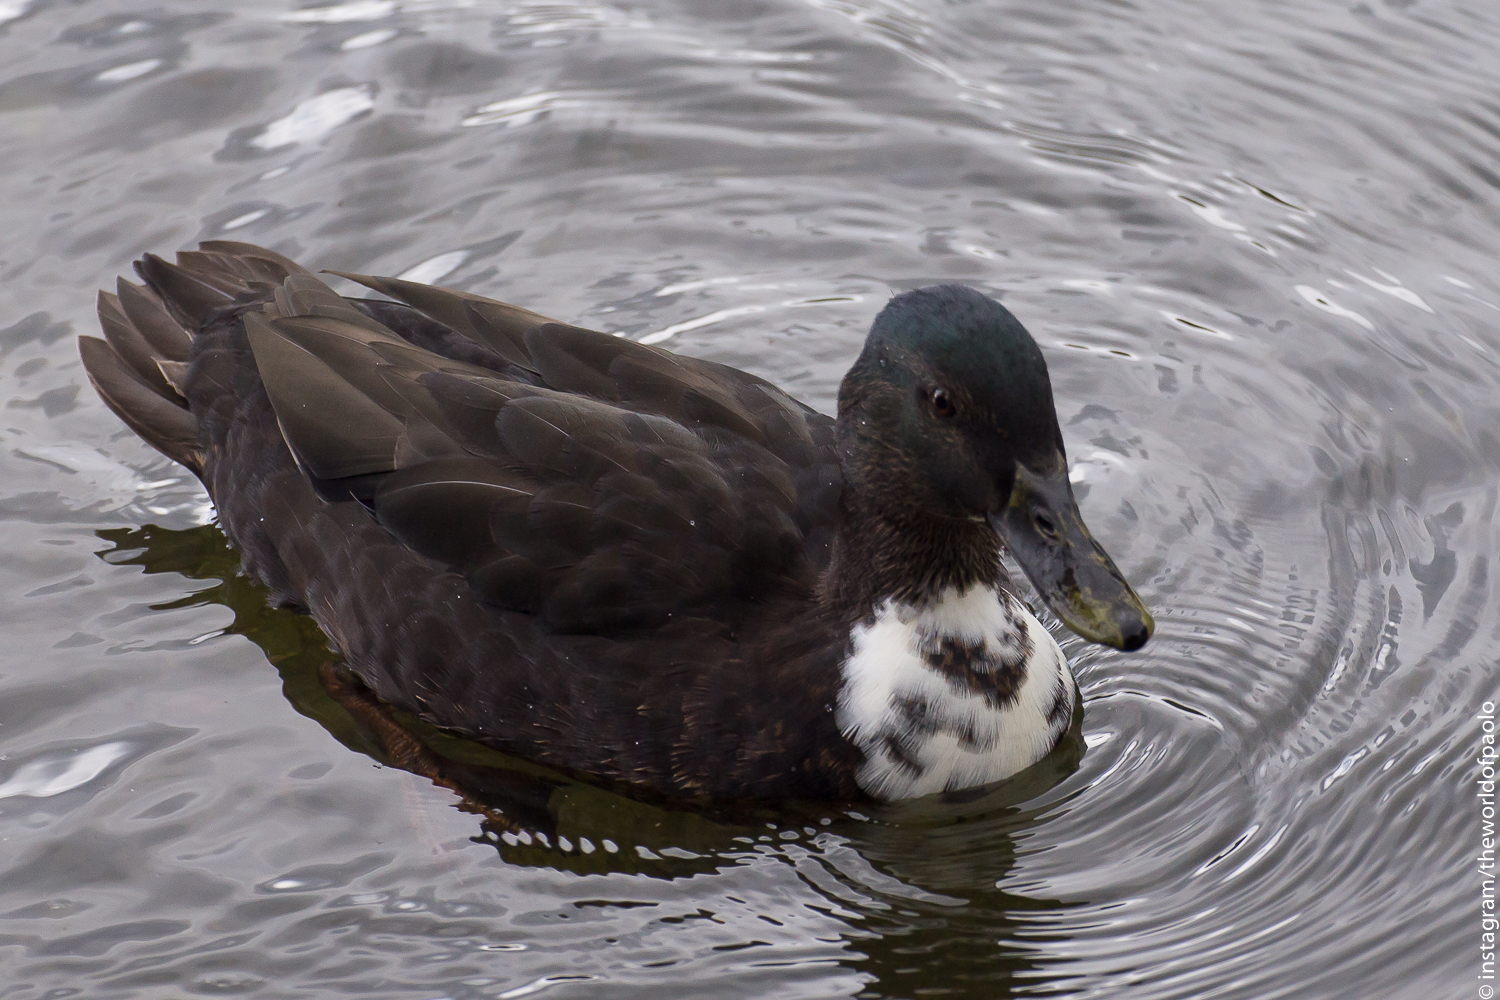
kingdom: Animalia
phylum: Chordata
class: Aves
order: Anseriformes
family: Anatidae
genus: Anas
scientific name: Anas platyrhynchos
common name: Mallard
